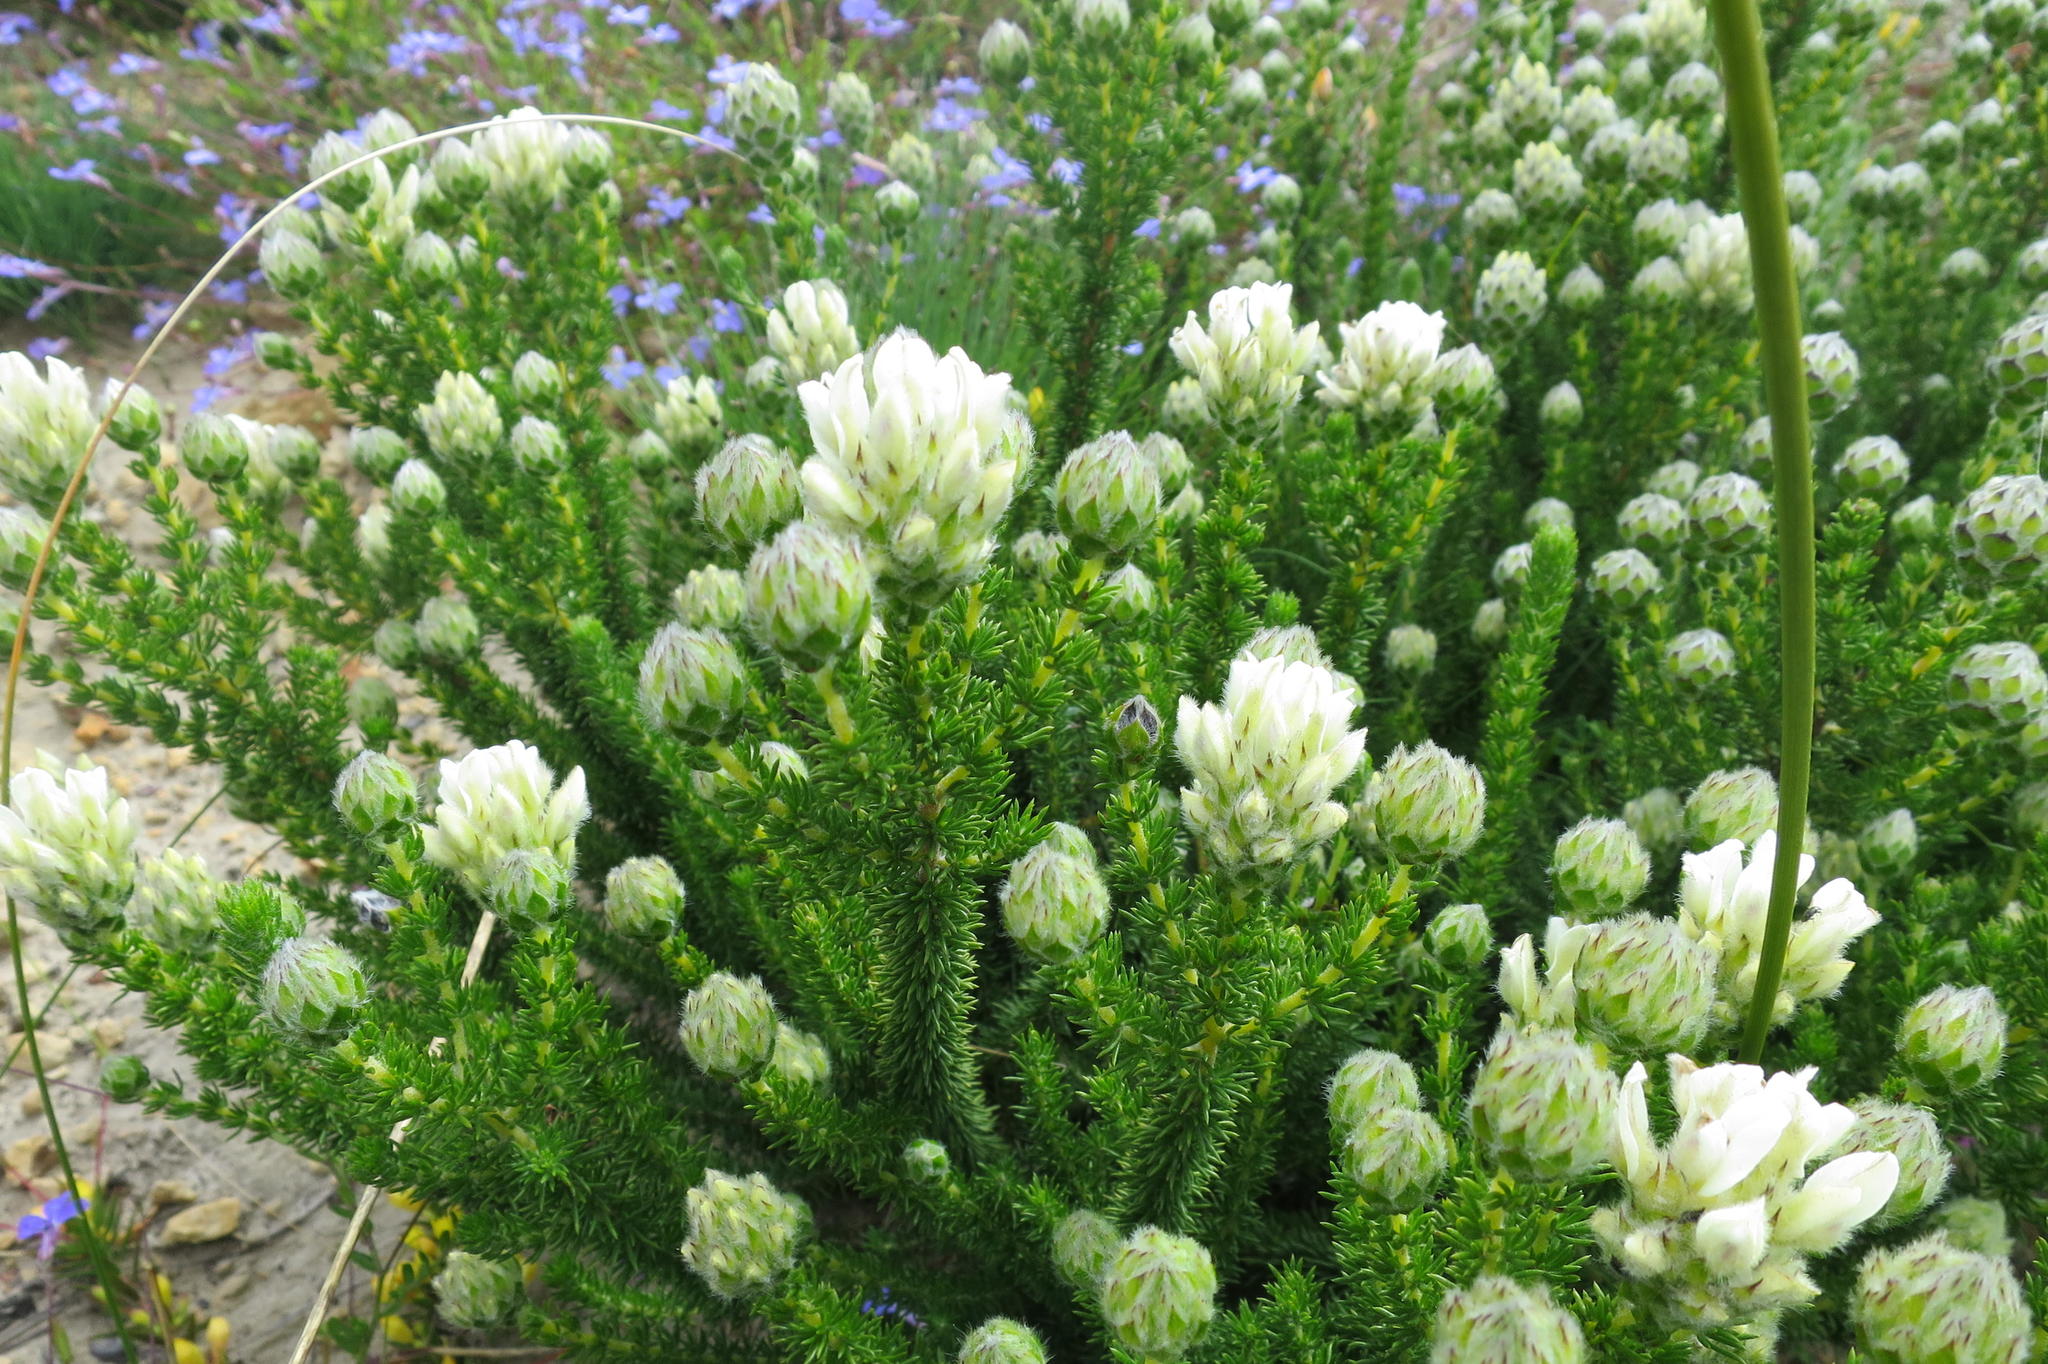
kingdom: Plantae
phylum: Tracheophyta
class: Magnoliopsida
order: Fabales
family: Fabaceae
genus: Aspalathus
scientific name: Aspalathus globulosa
